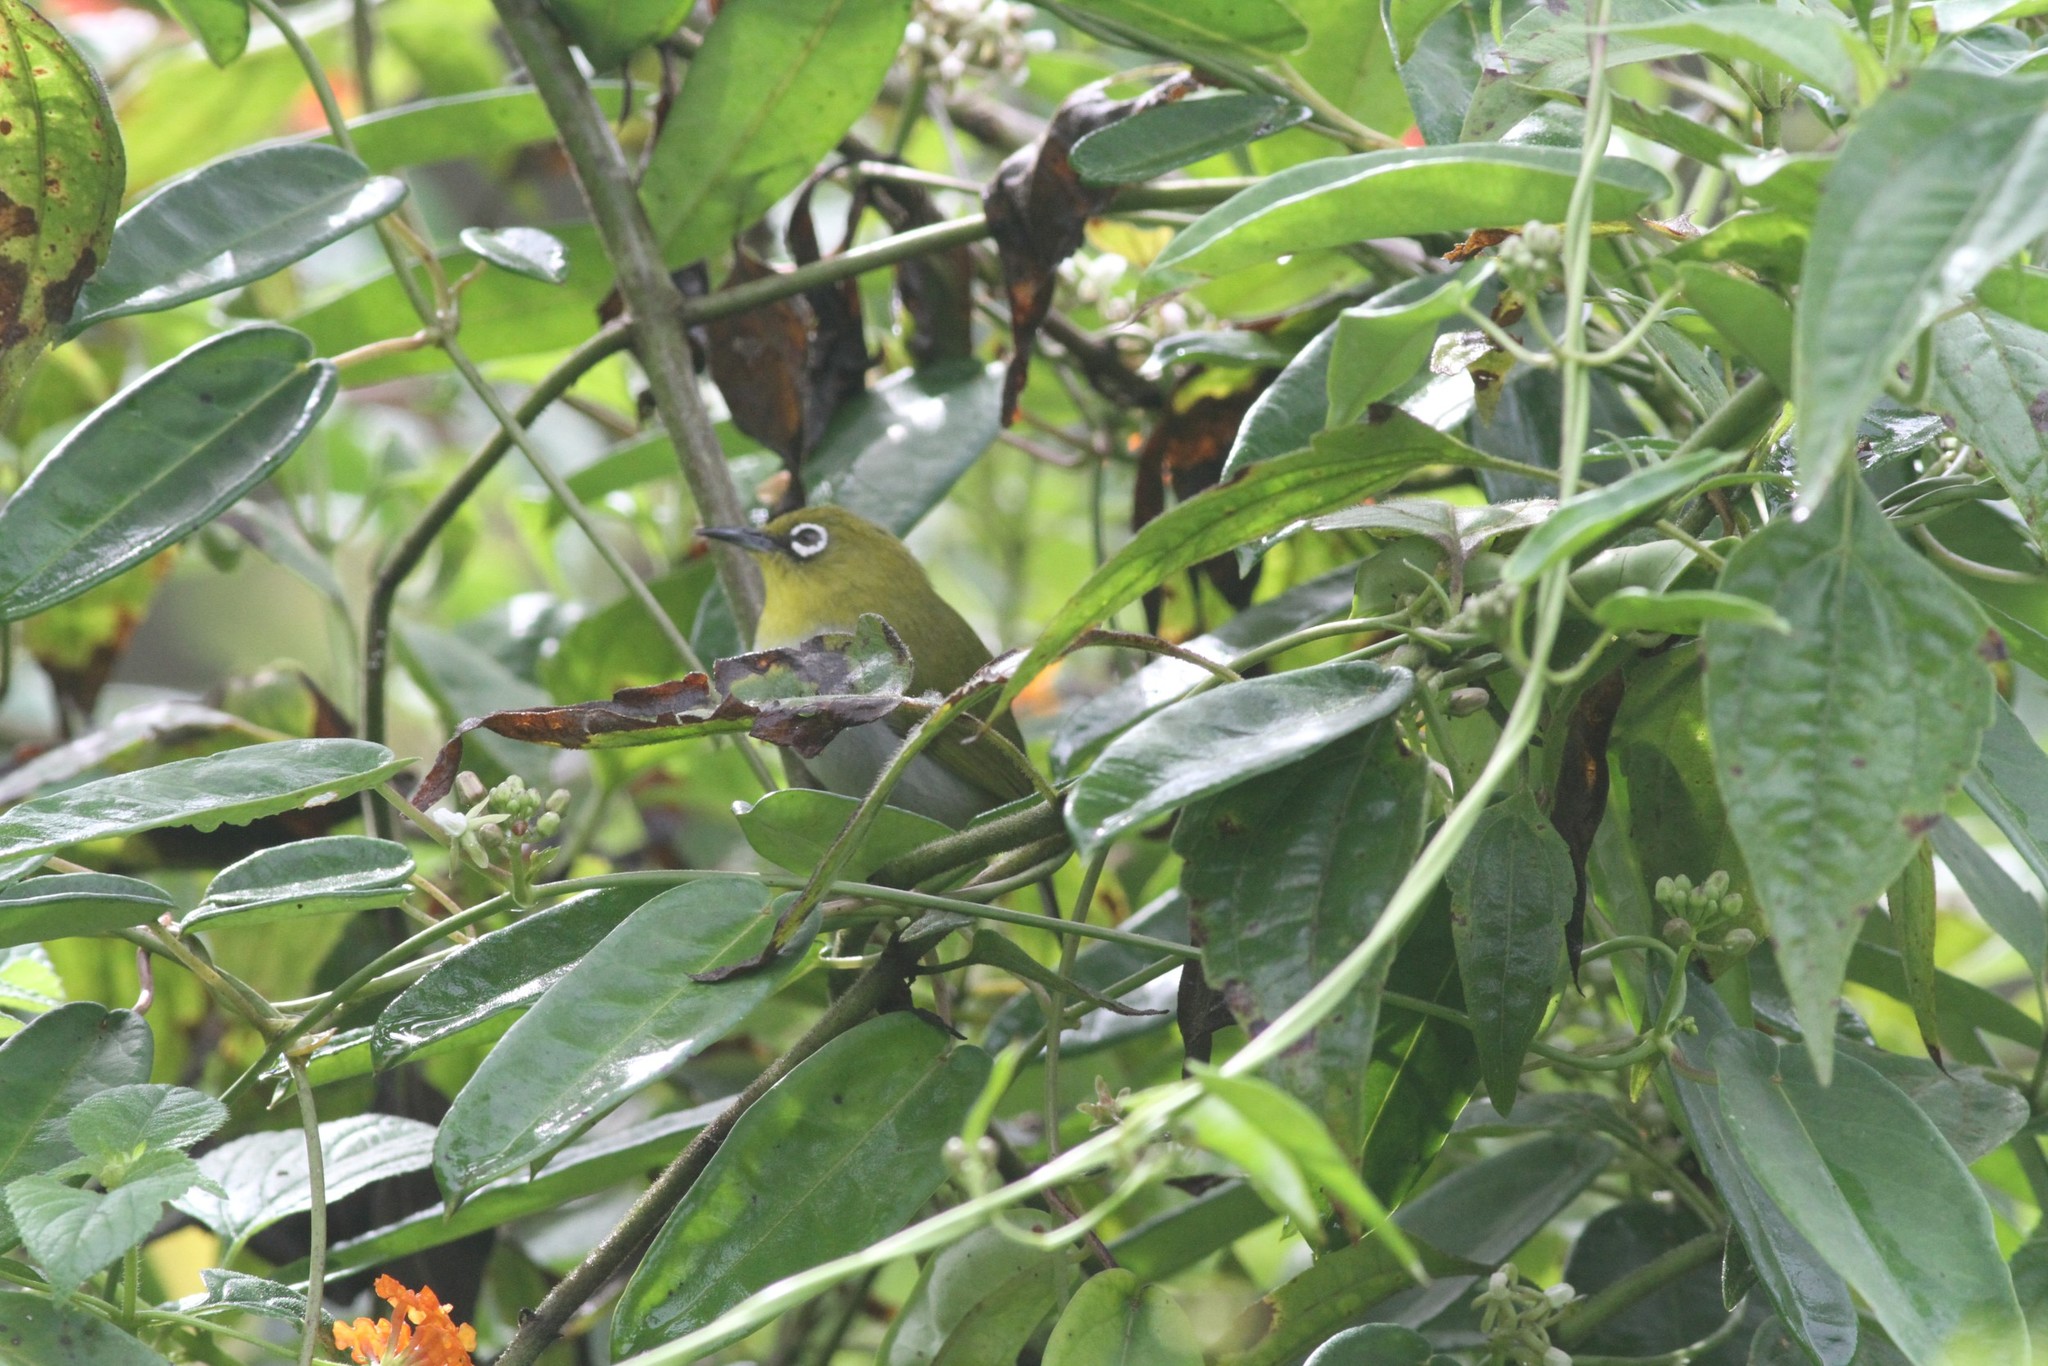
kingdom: Animalia
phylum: Chordata
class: Aves
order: Passeriformes
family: Zosteropidae
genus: Zosterops
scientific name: Zosterops palpebrosus
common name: Oriental white-eye
